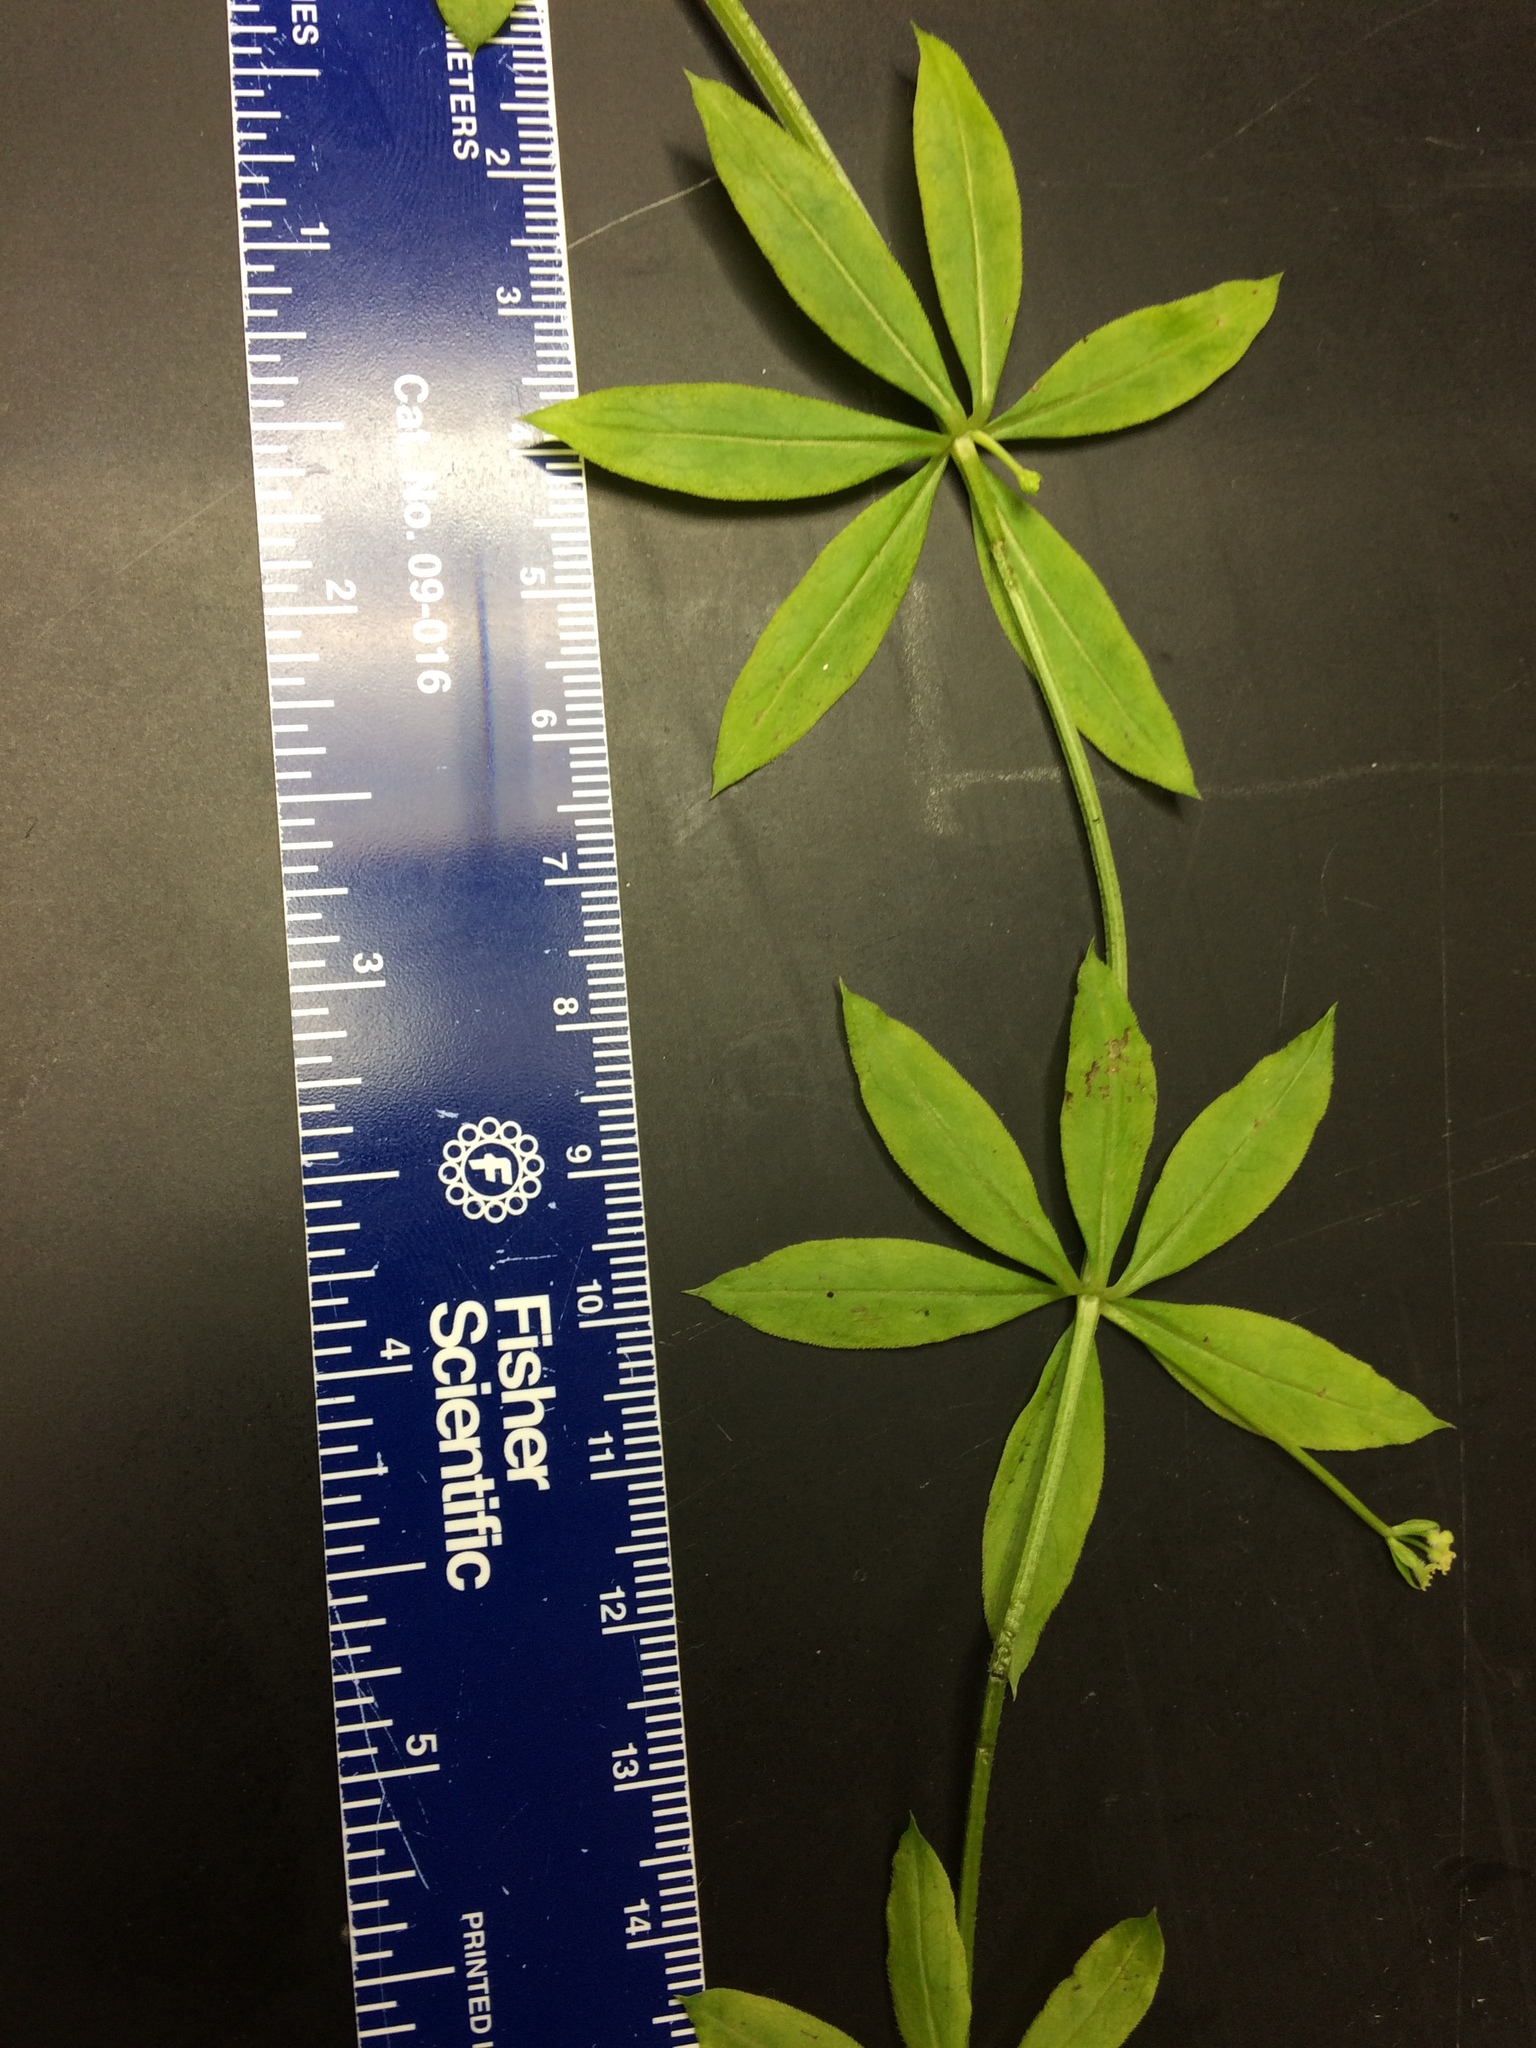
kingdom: Plantae
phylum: Tracheophyta
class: Magnoliopsida
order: Gentianales
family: Rubiaceae
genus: Galium
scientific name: Galium triflorum
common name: Fragrant bedstraw
